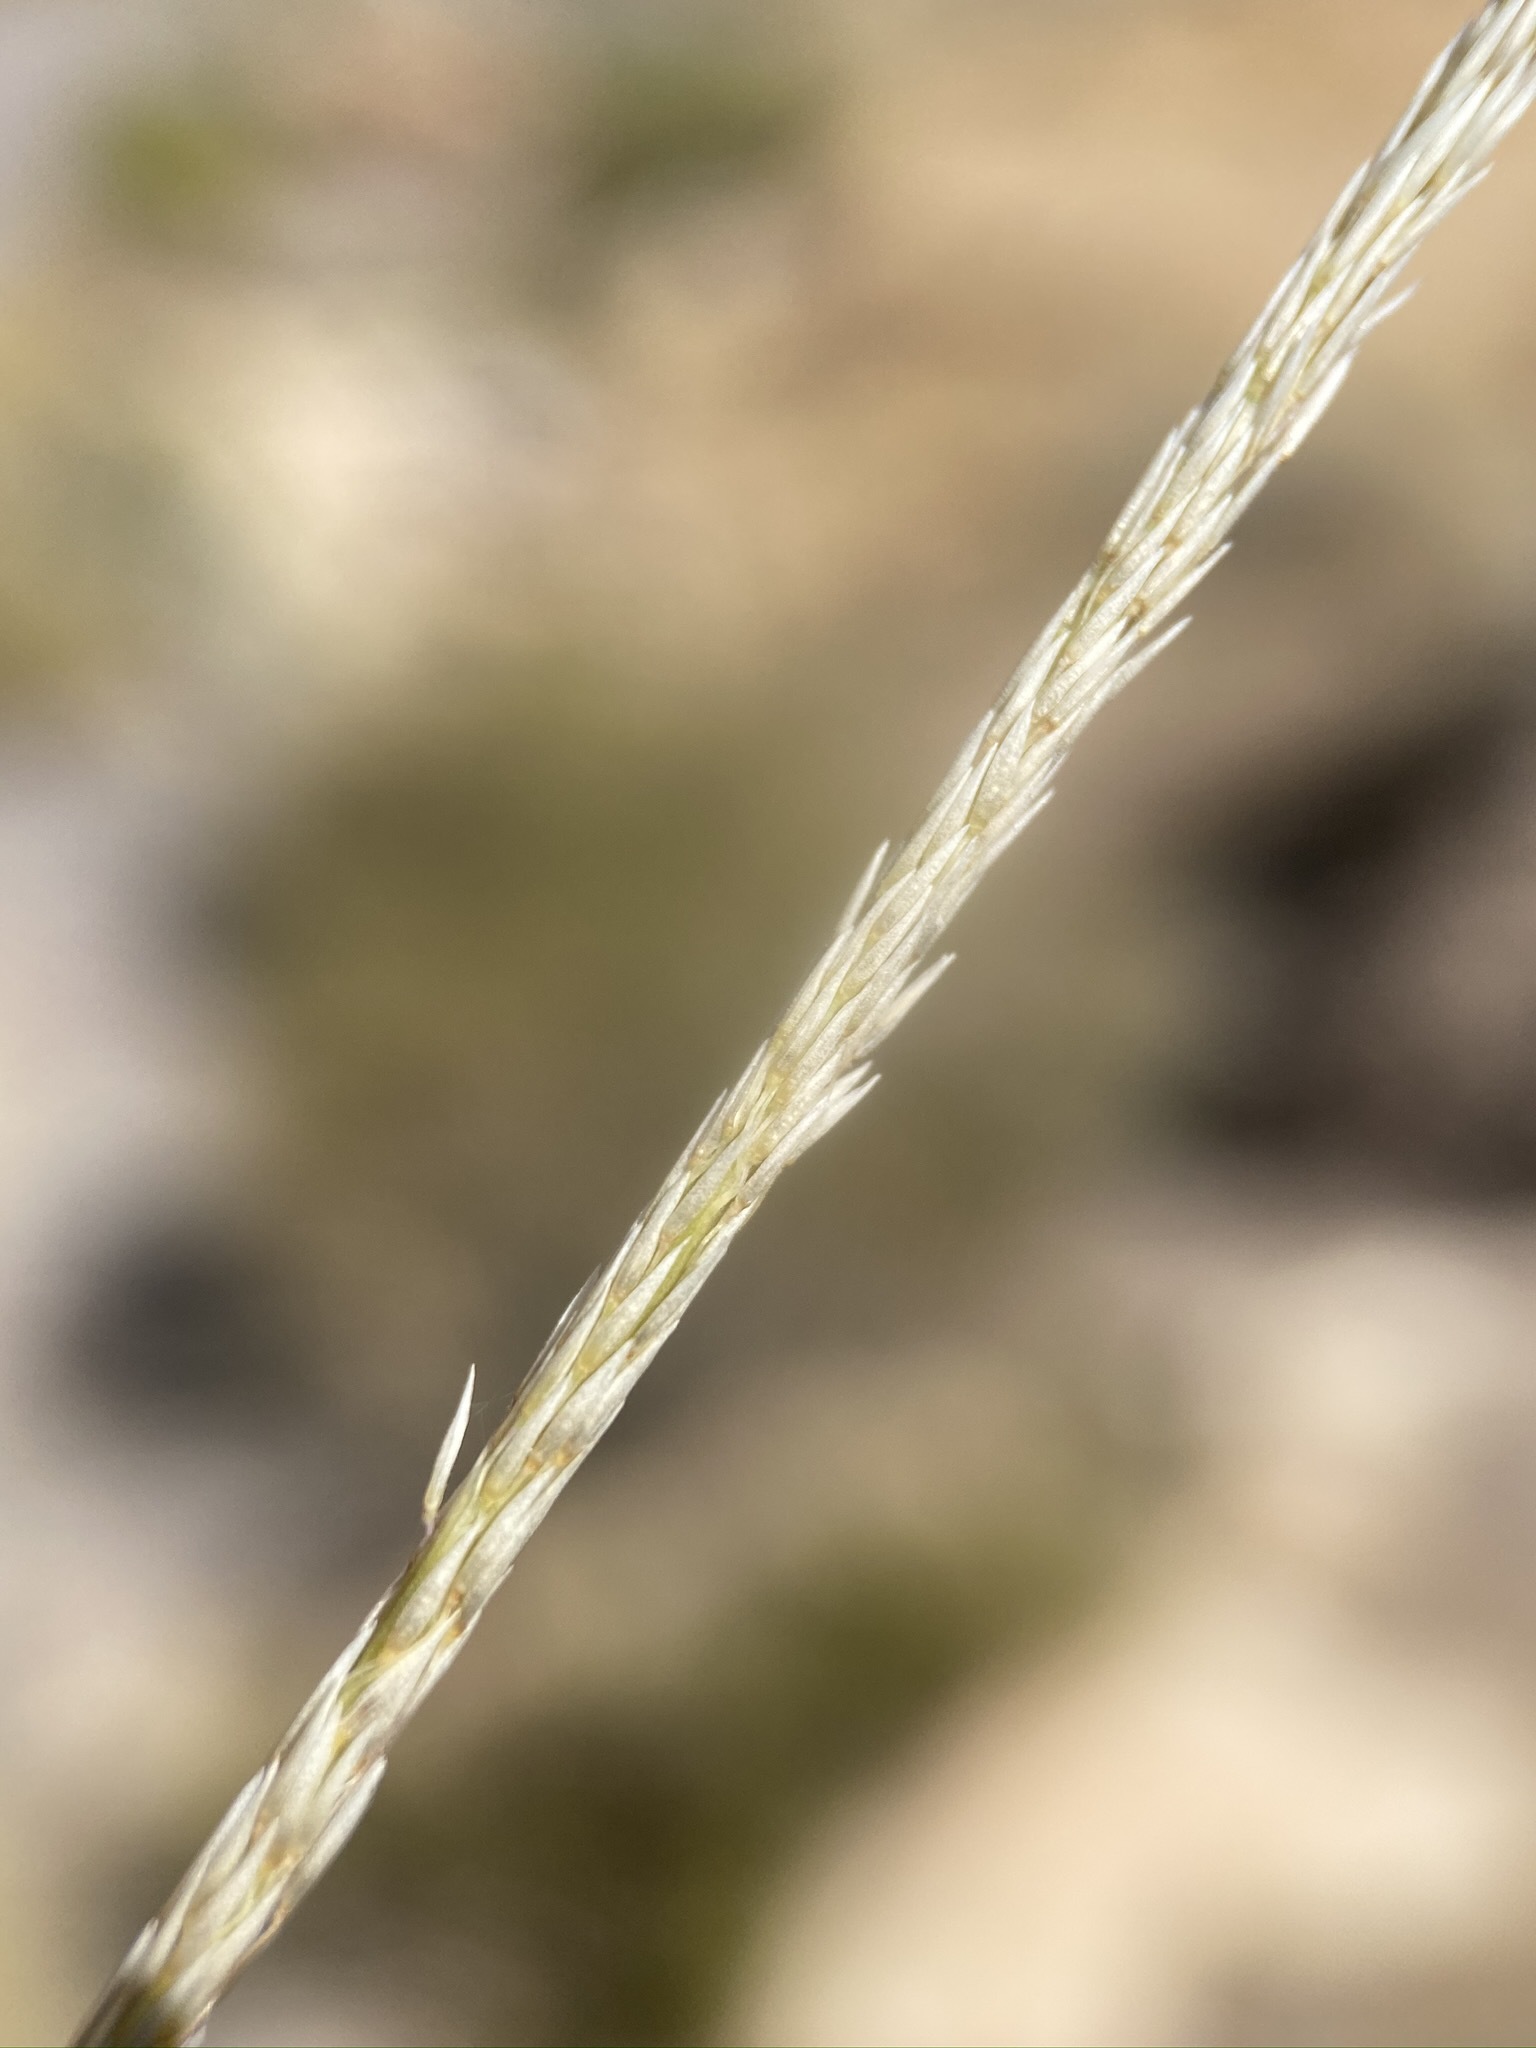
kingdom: Plantae
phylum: Tracheophyta
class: Liliopsida
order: Poales
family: Poaceae
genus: Muhlenbergia
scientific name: Muhlenbergia rigens
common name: Deer grass
